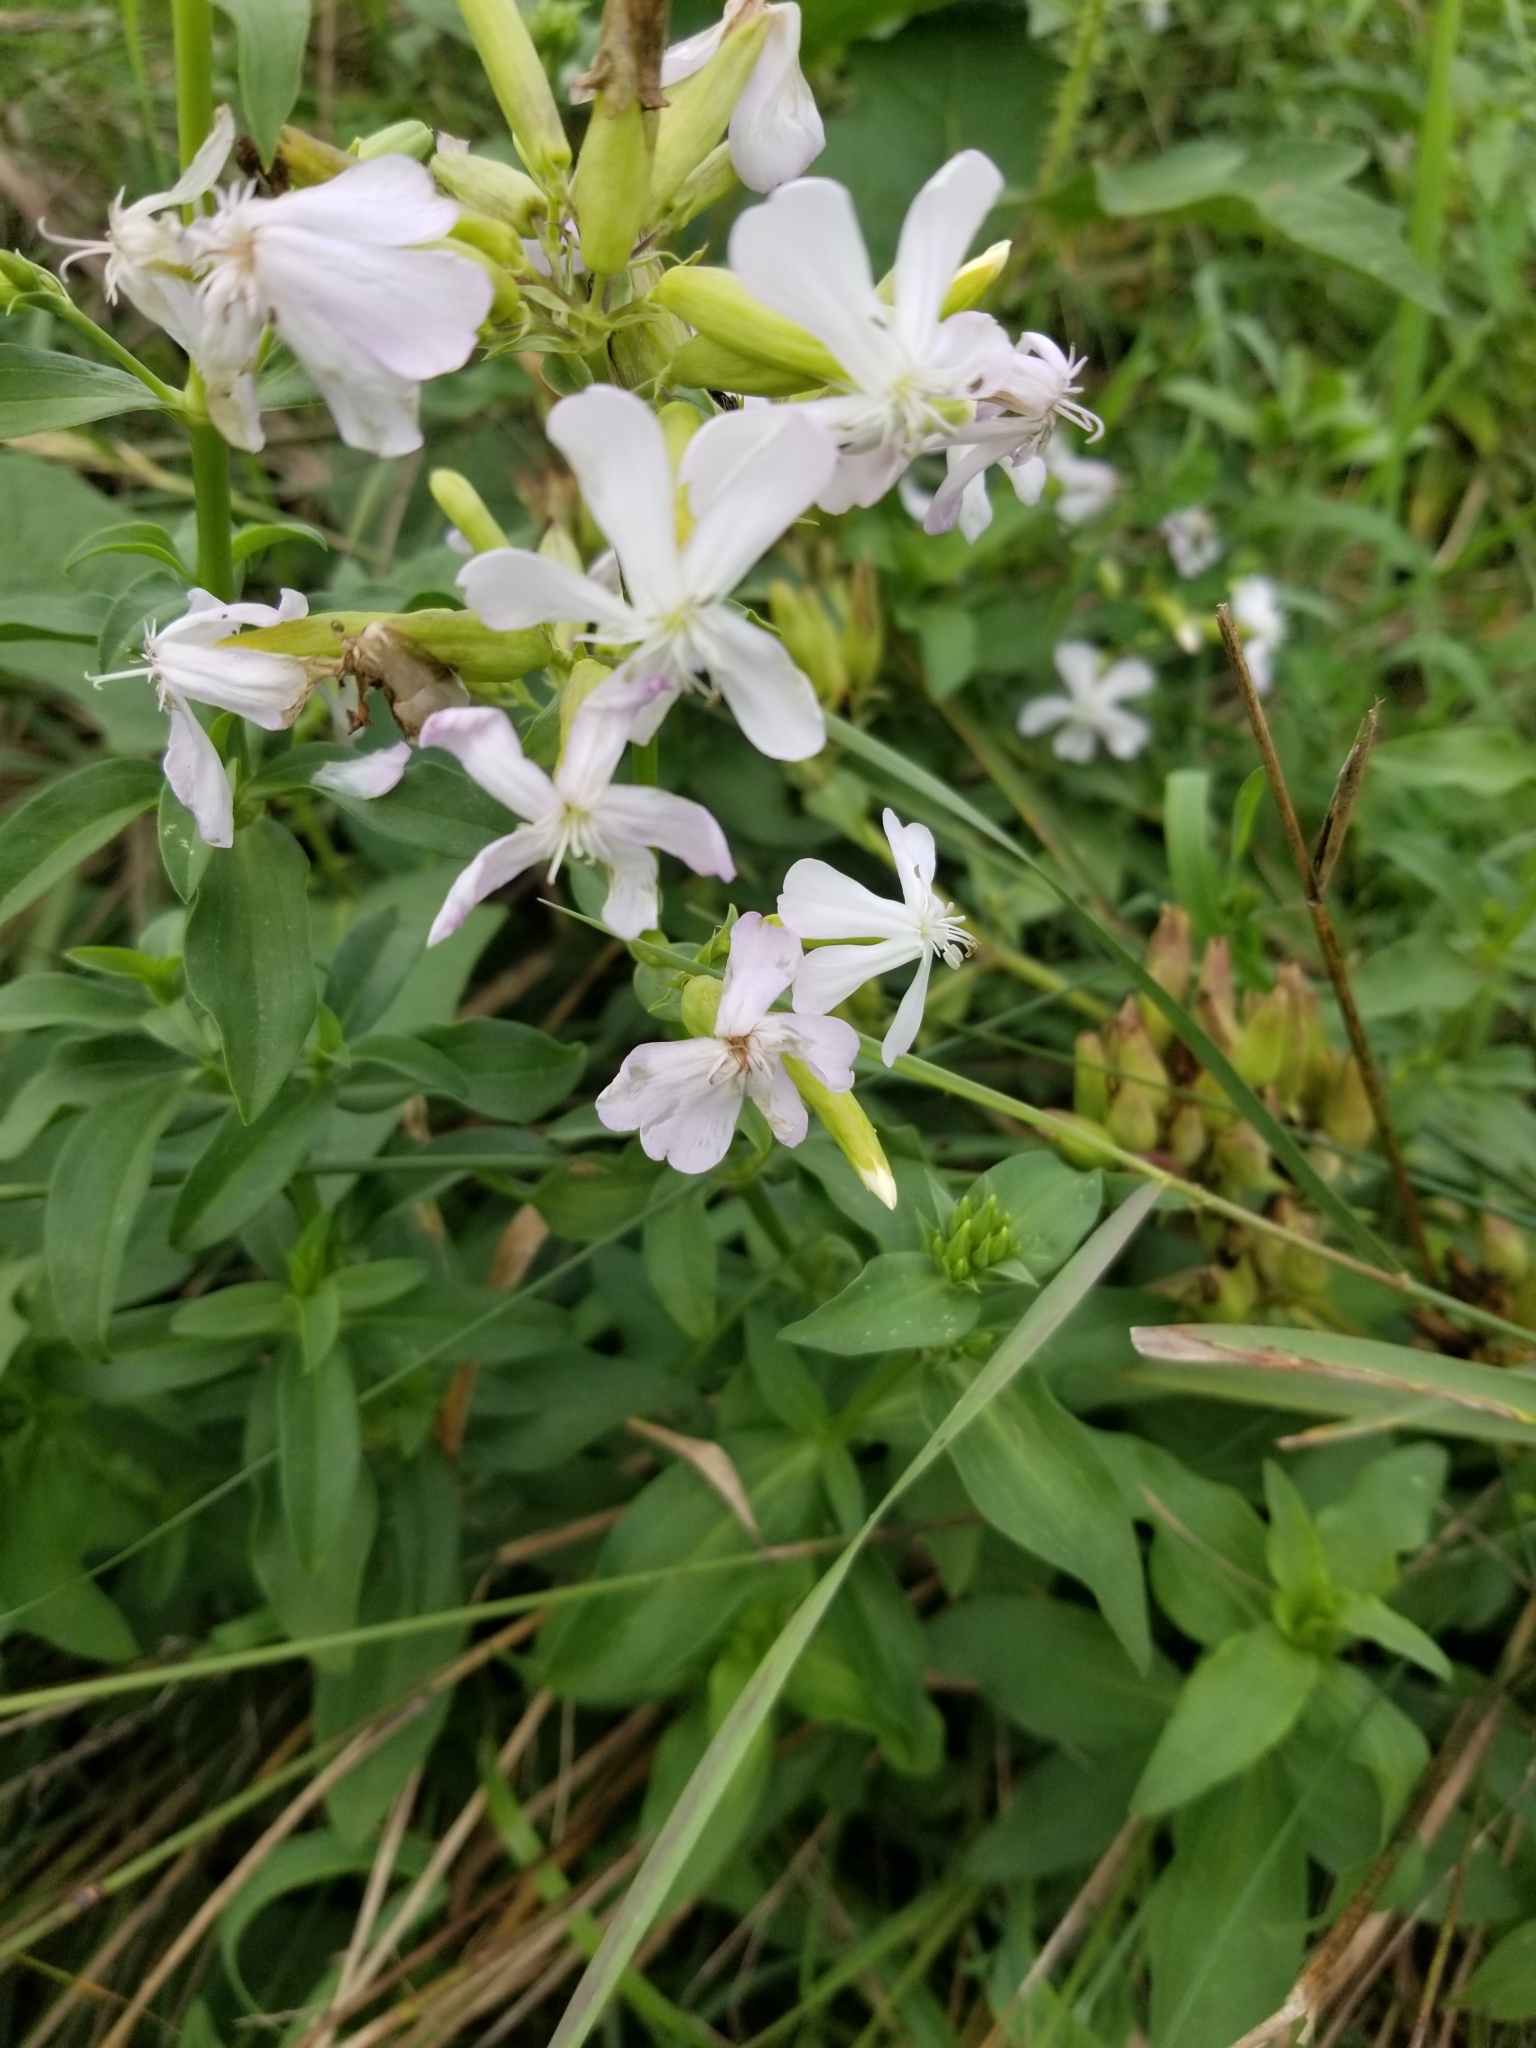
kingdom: Plantae
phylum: Tracheophyta
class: Magnoliopsida
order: Caryophyllales
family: Caryophyllaceae
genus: Saponaria
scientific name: Saponaria officinalis
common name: Soapwort
